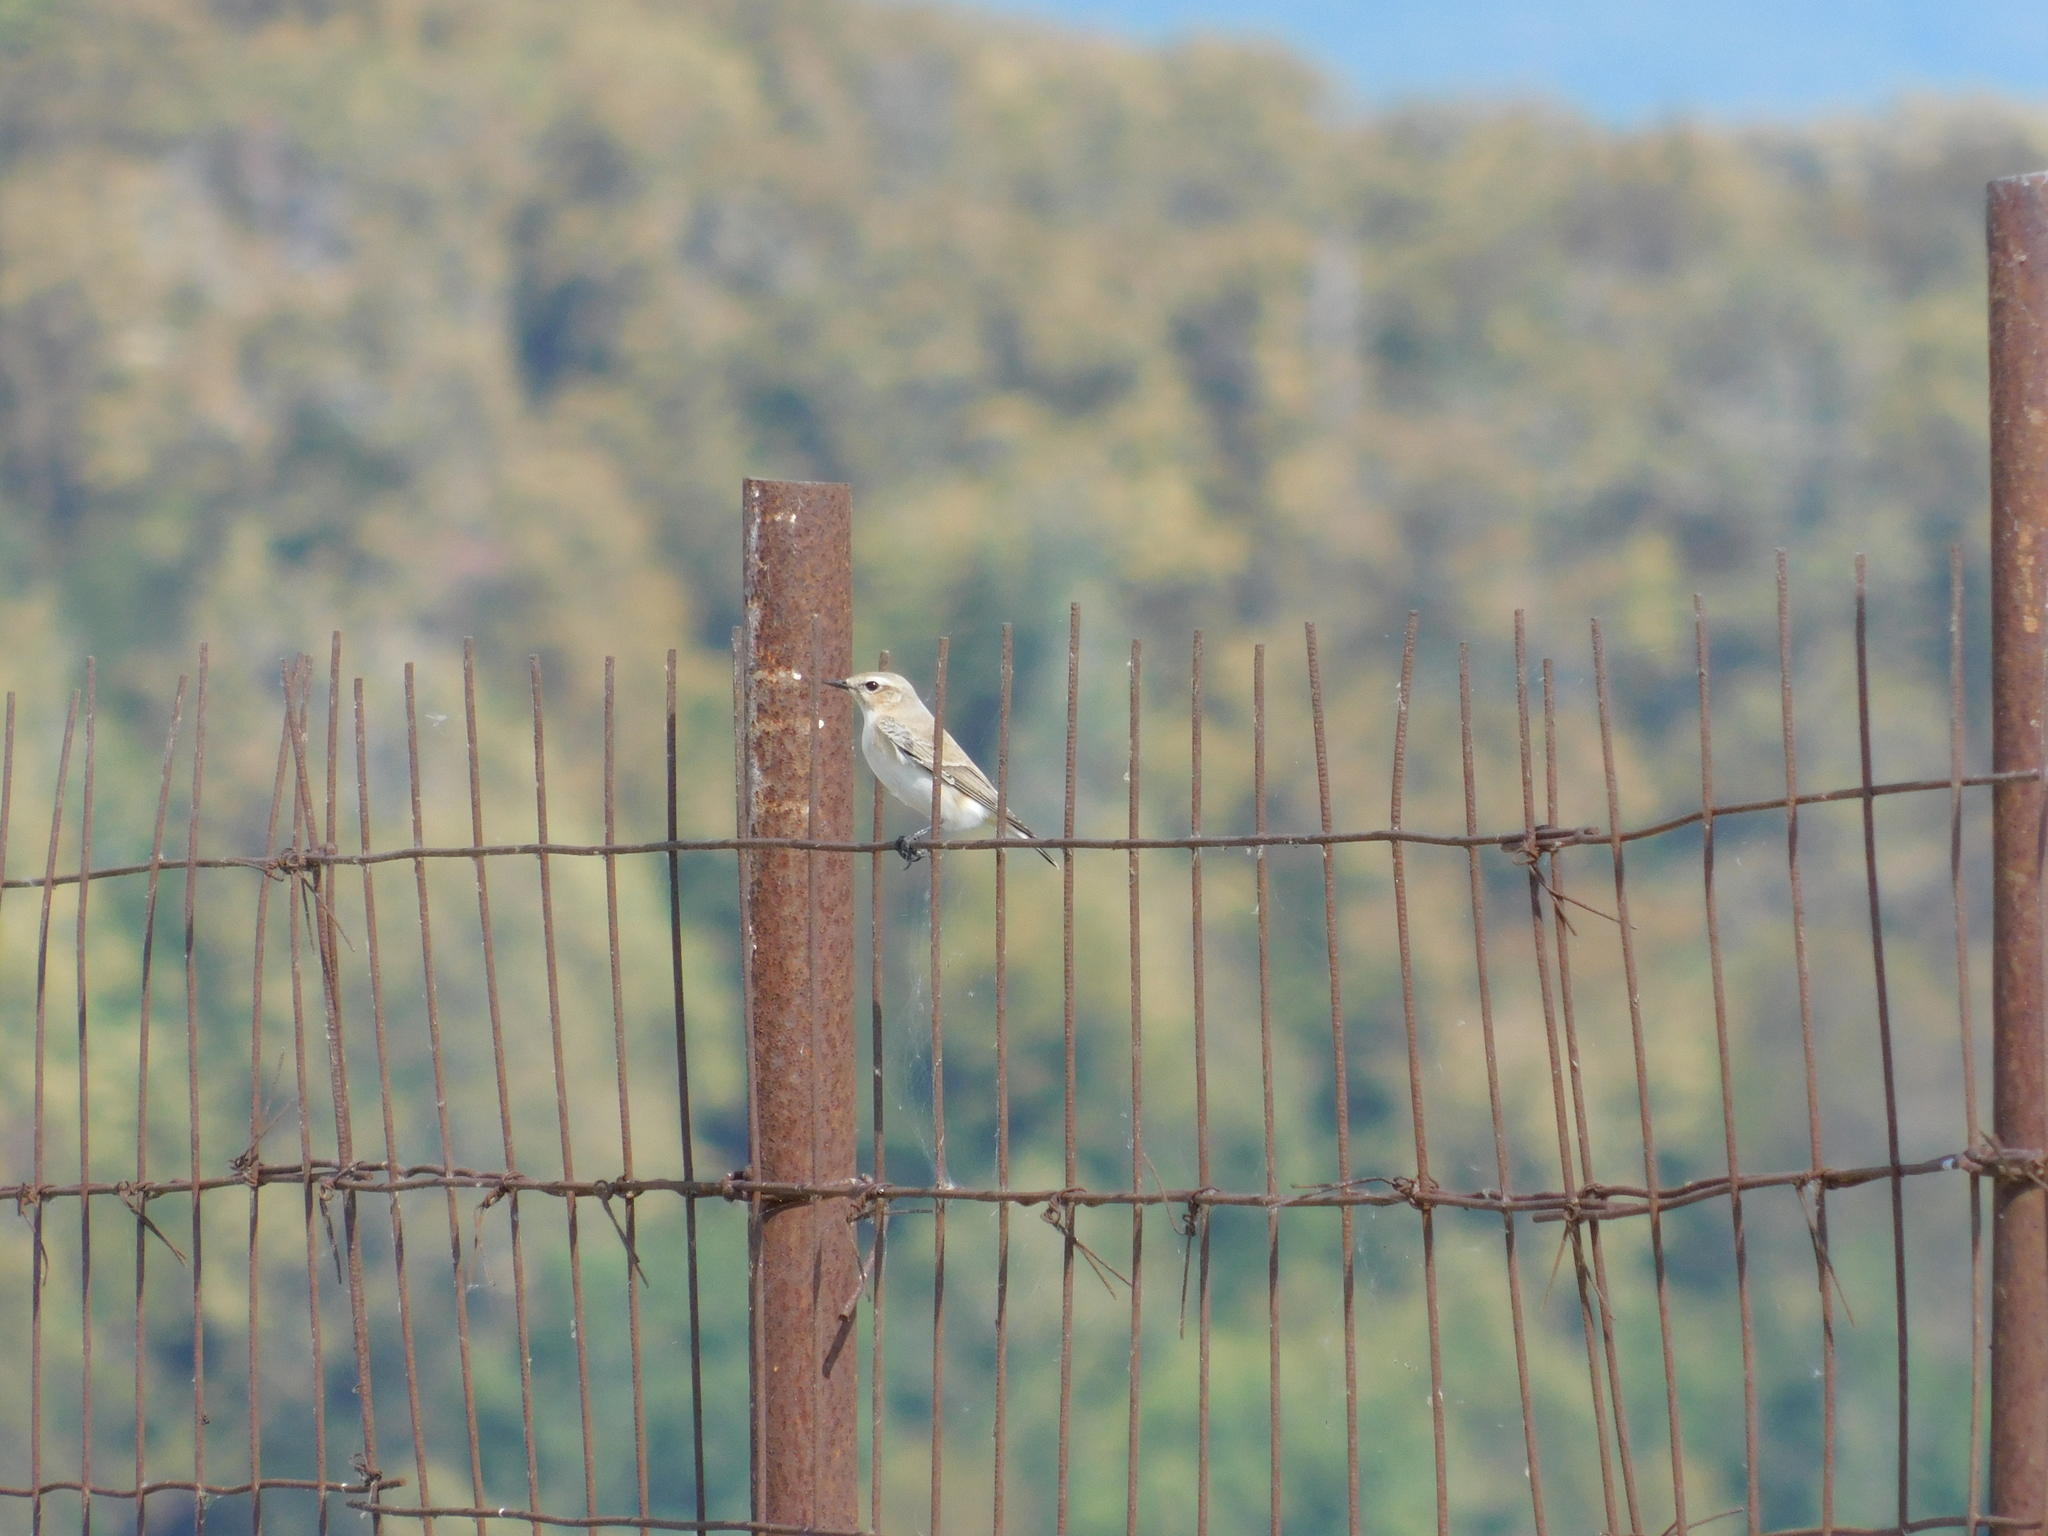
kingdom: Animalia
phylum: Chordata
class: Aves
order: Passeriformes
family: Muscicapidae
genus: Oenanthe
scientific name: Oenanthe isabellina
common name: Isabelline wheatear
